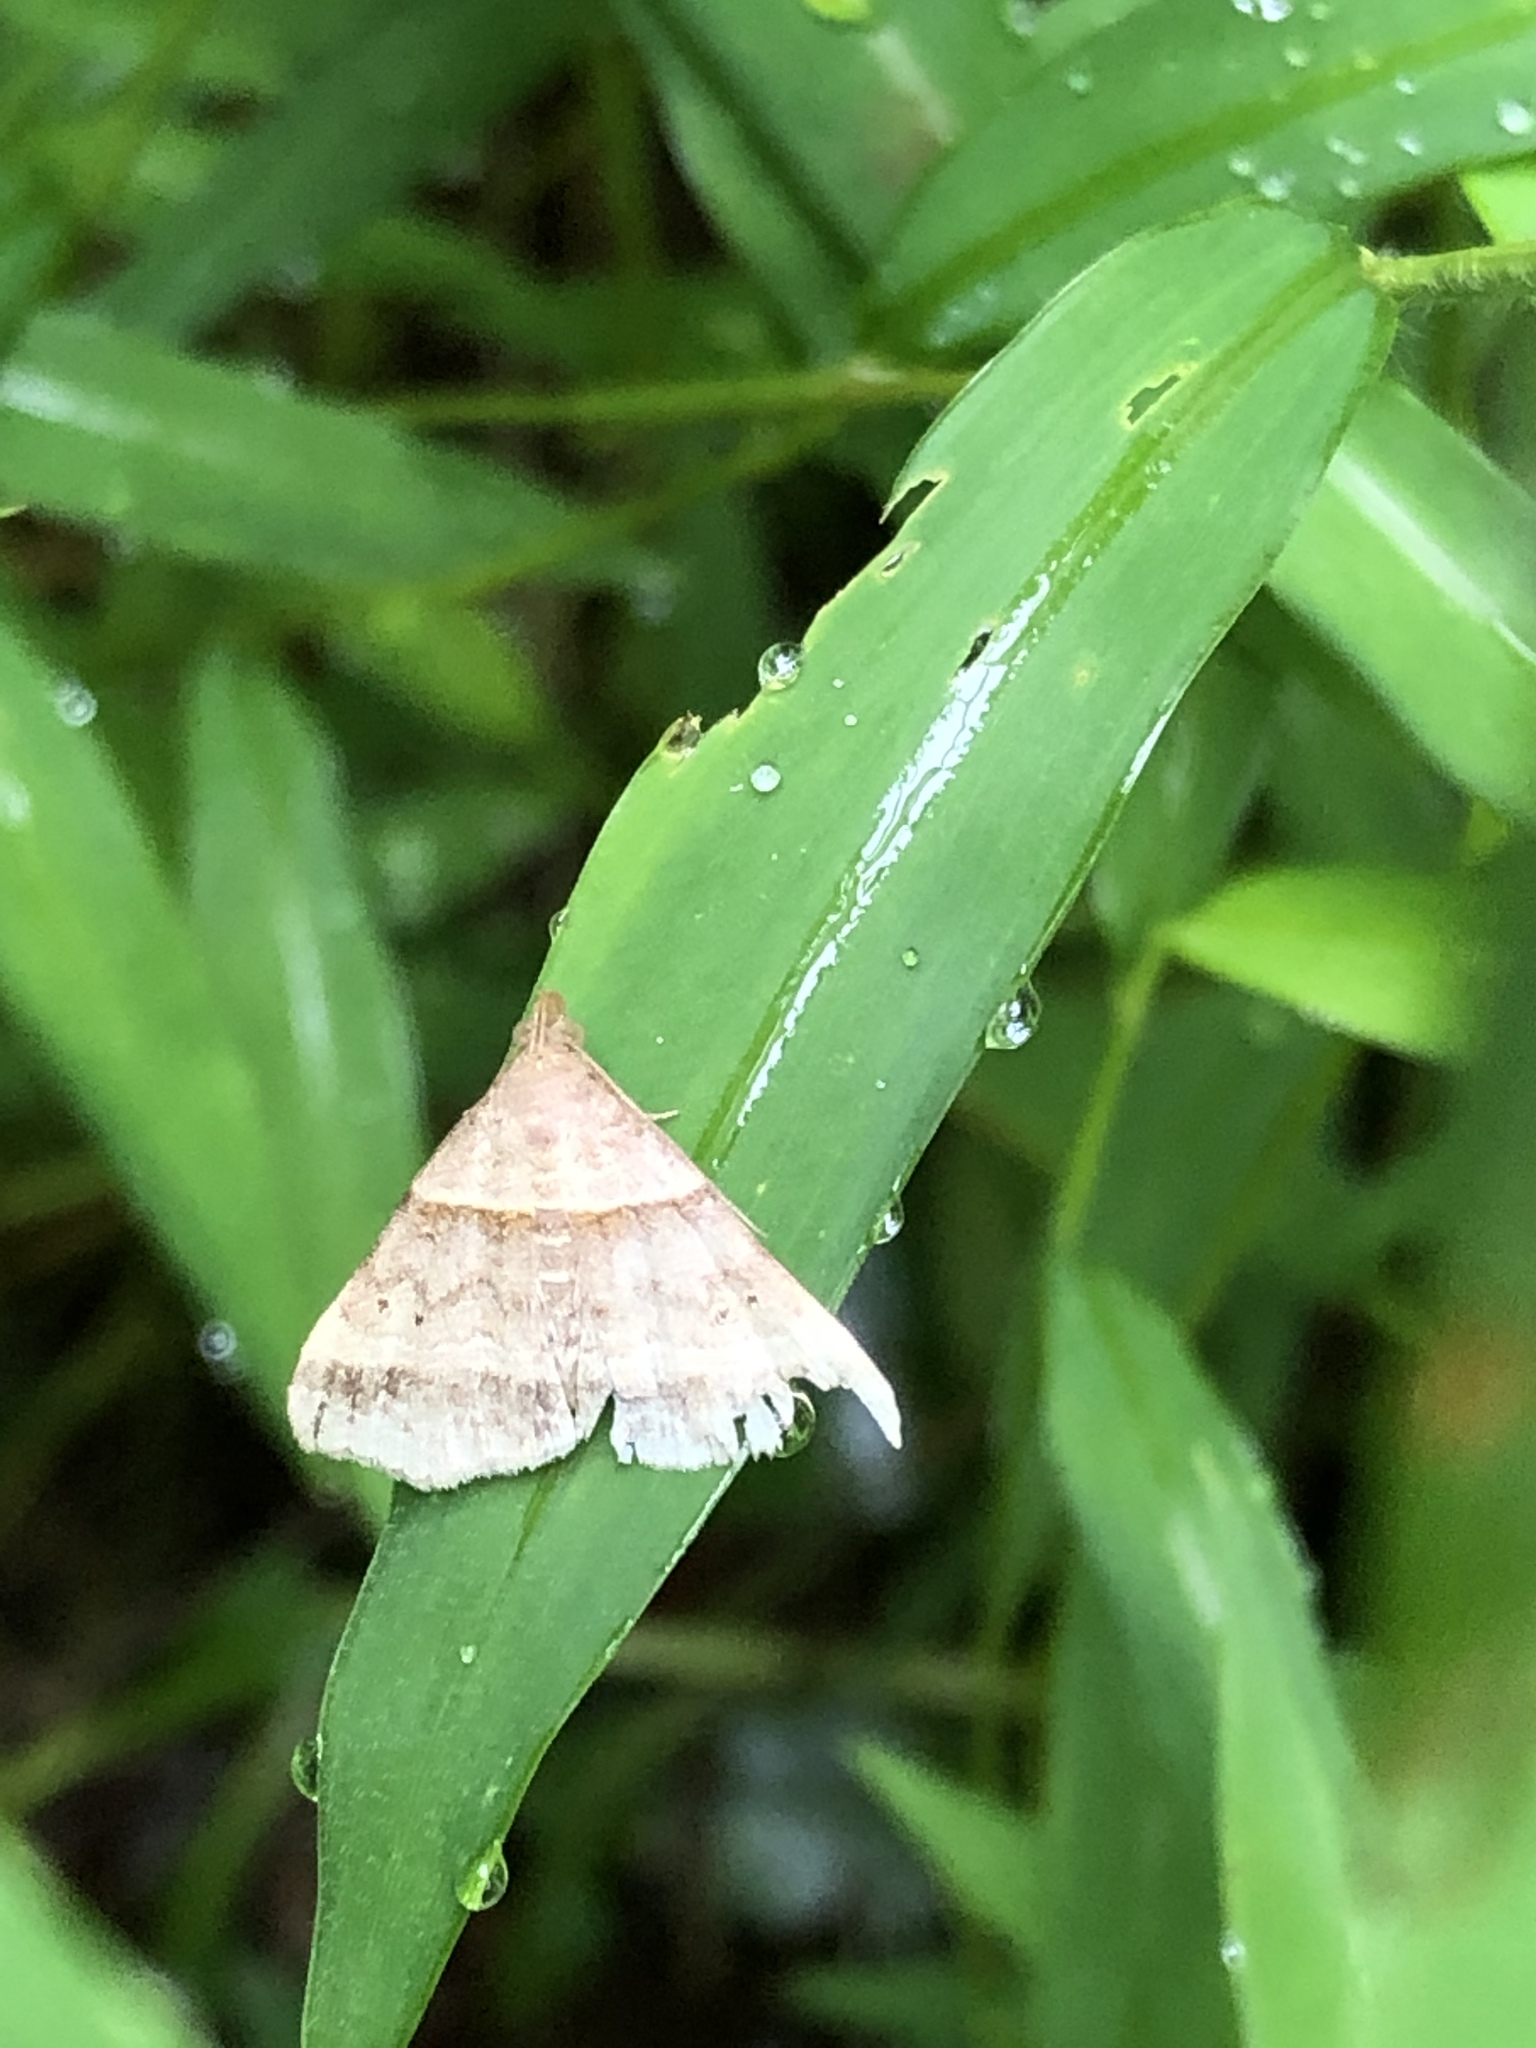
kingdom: Animalia
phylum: Arthropoda
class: Insecta
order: Lepidoptera
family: Erebidae
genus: Phaeolita
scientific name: Phaeolita pyramusalis
